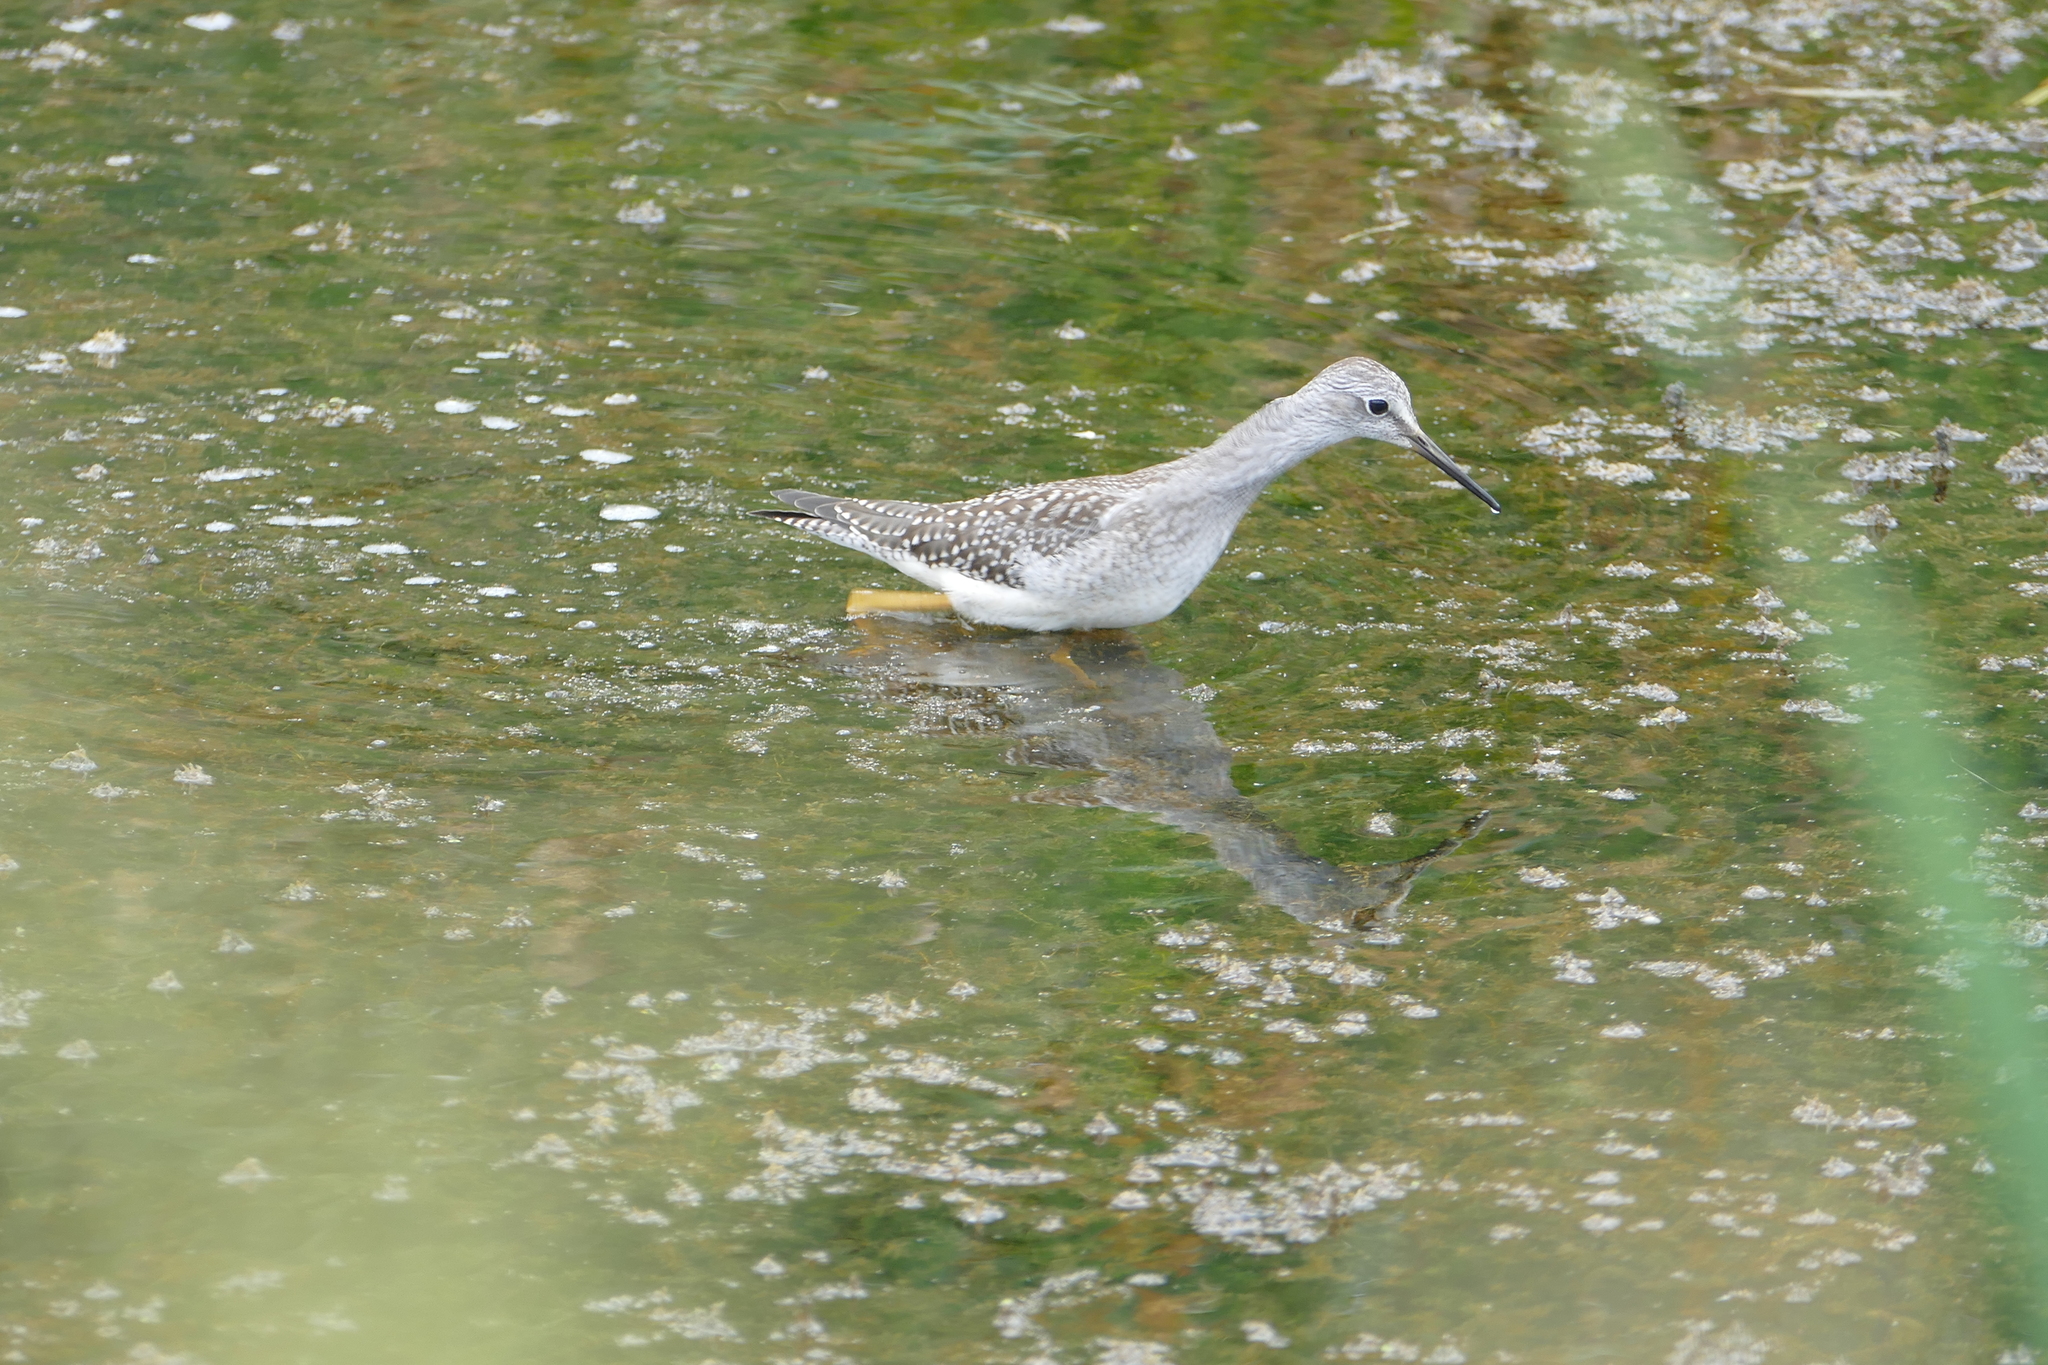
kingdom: Animalia
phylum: Chordata
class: Aves
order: Charadriiformes
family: Scolopacidae
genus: Tringa
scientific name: Tringa flavipes
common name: Lesser yellowlegs
